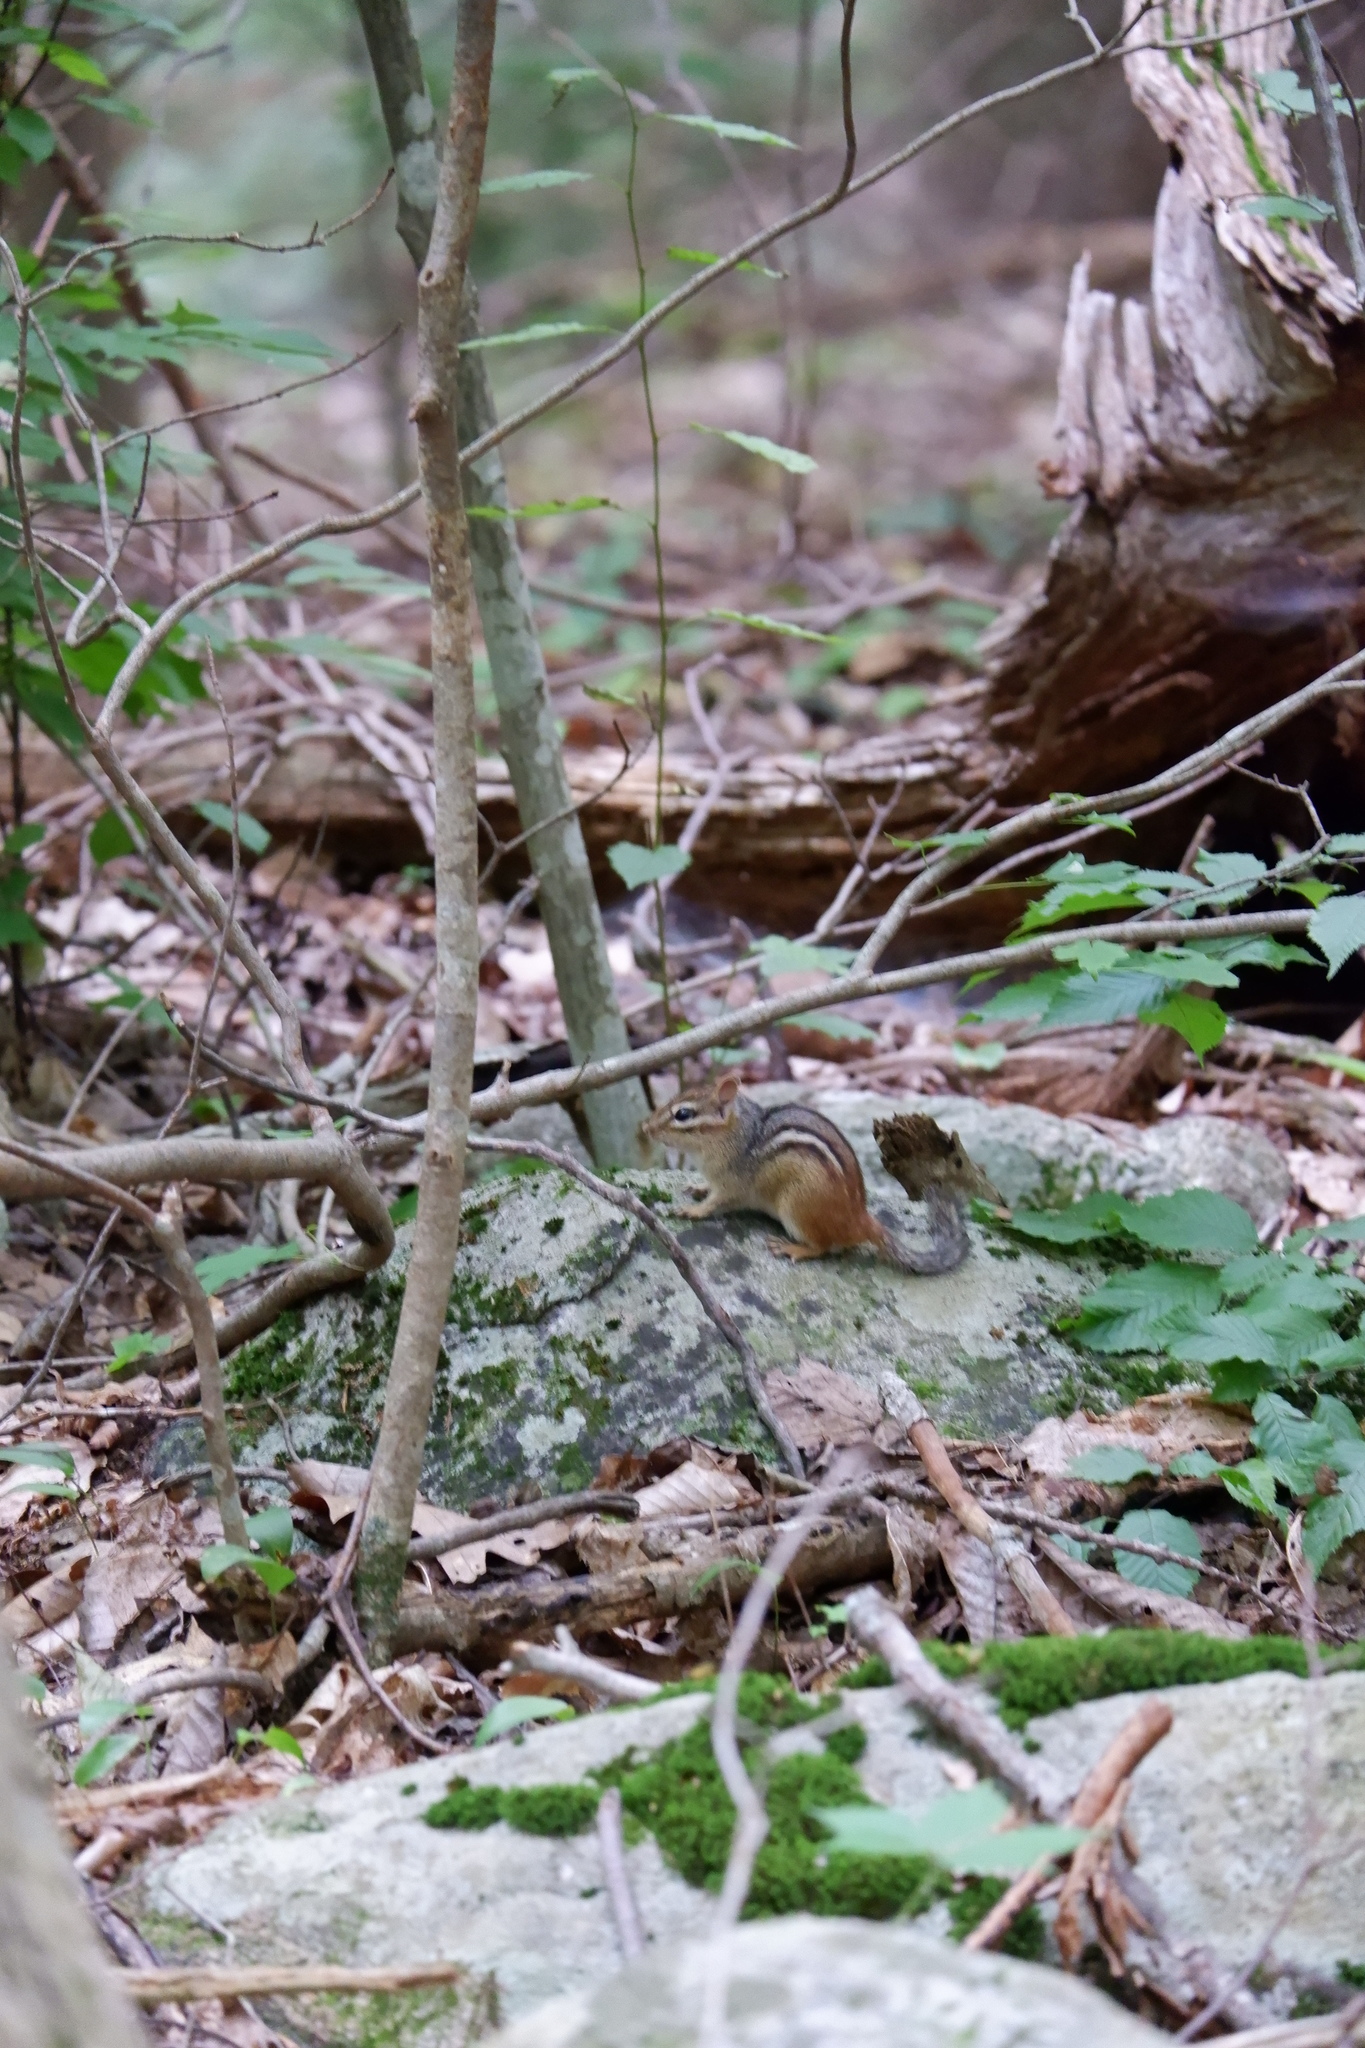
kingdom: Animalia
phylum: Chordata
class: Mammalia
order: Rodentia
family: Sciuridae
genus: Tamias
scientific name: Tamias striatus
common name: Eastern chipmunk
